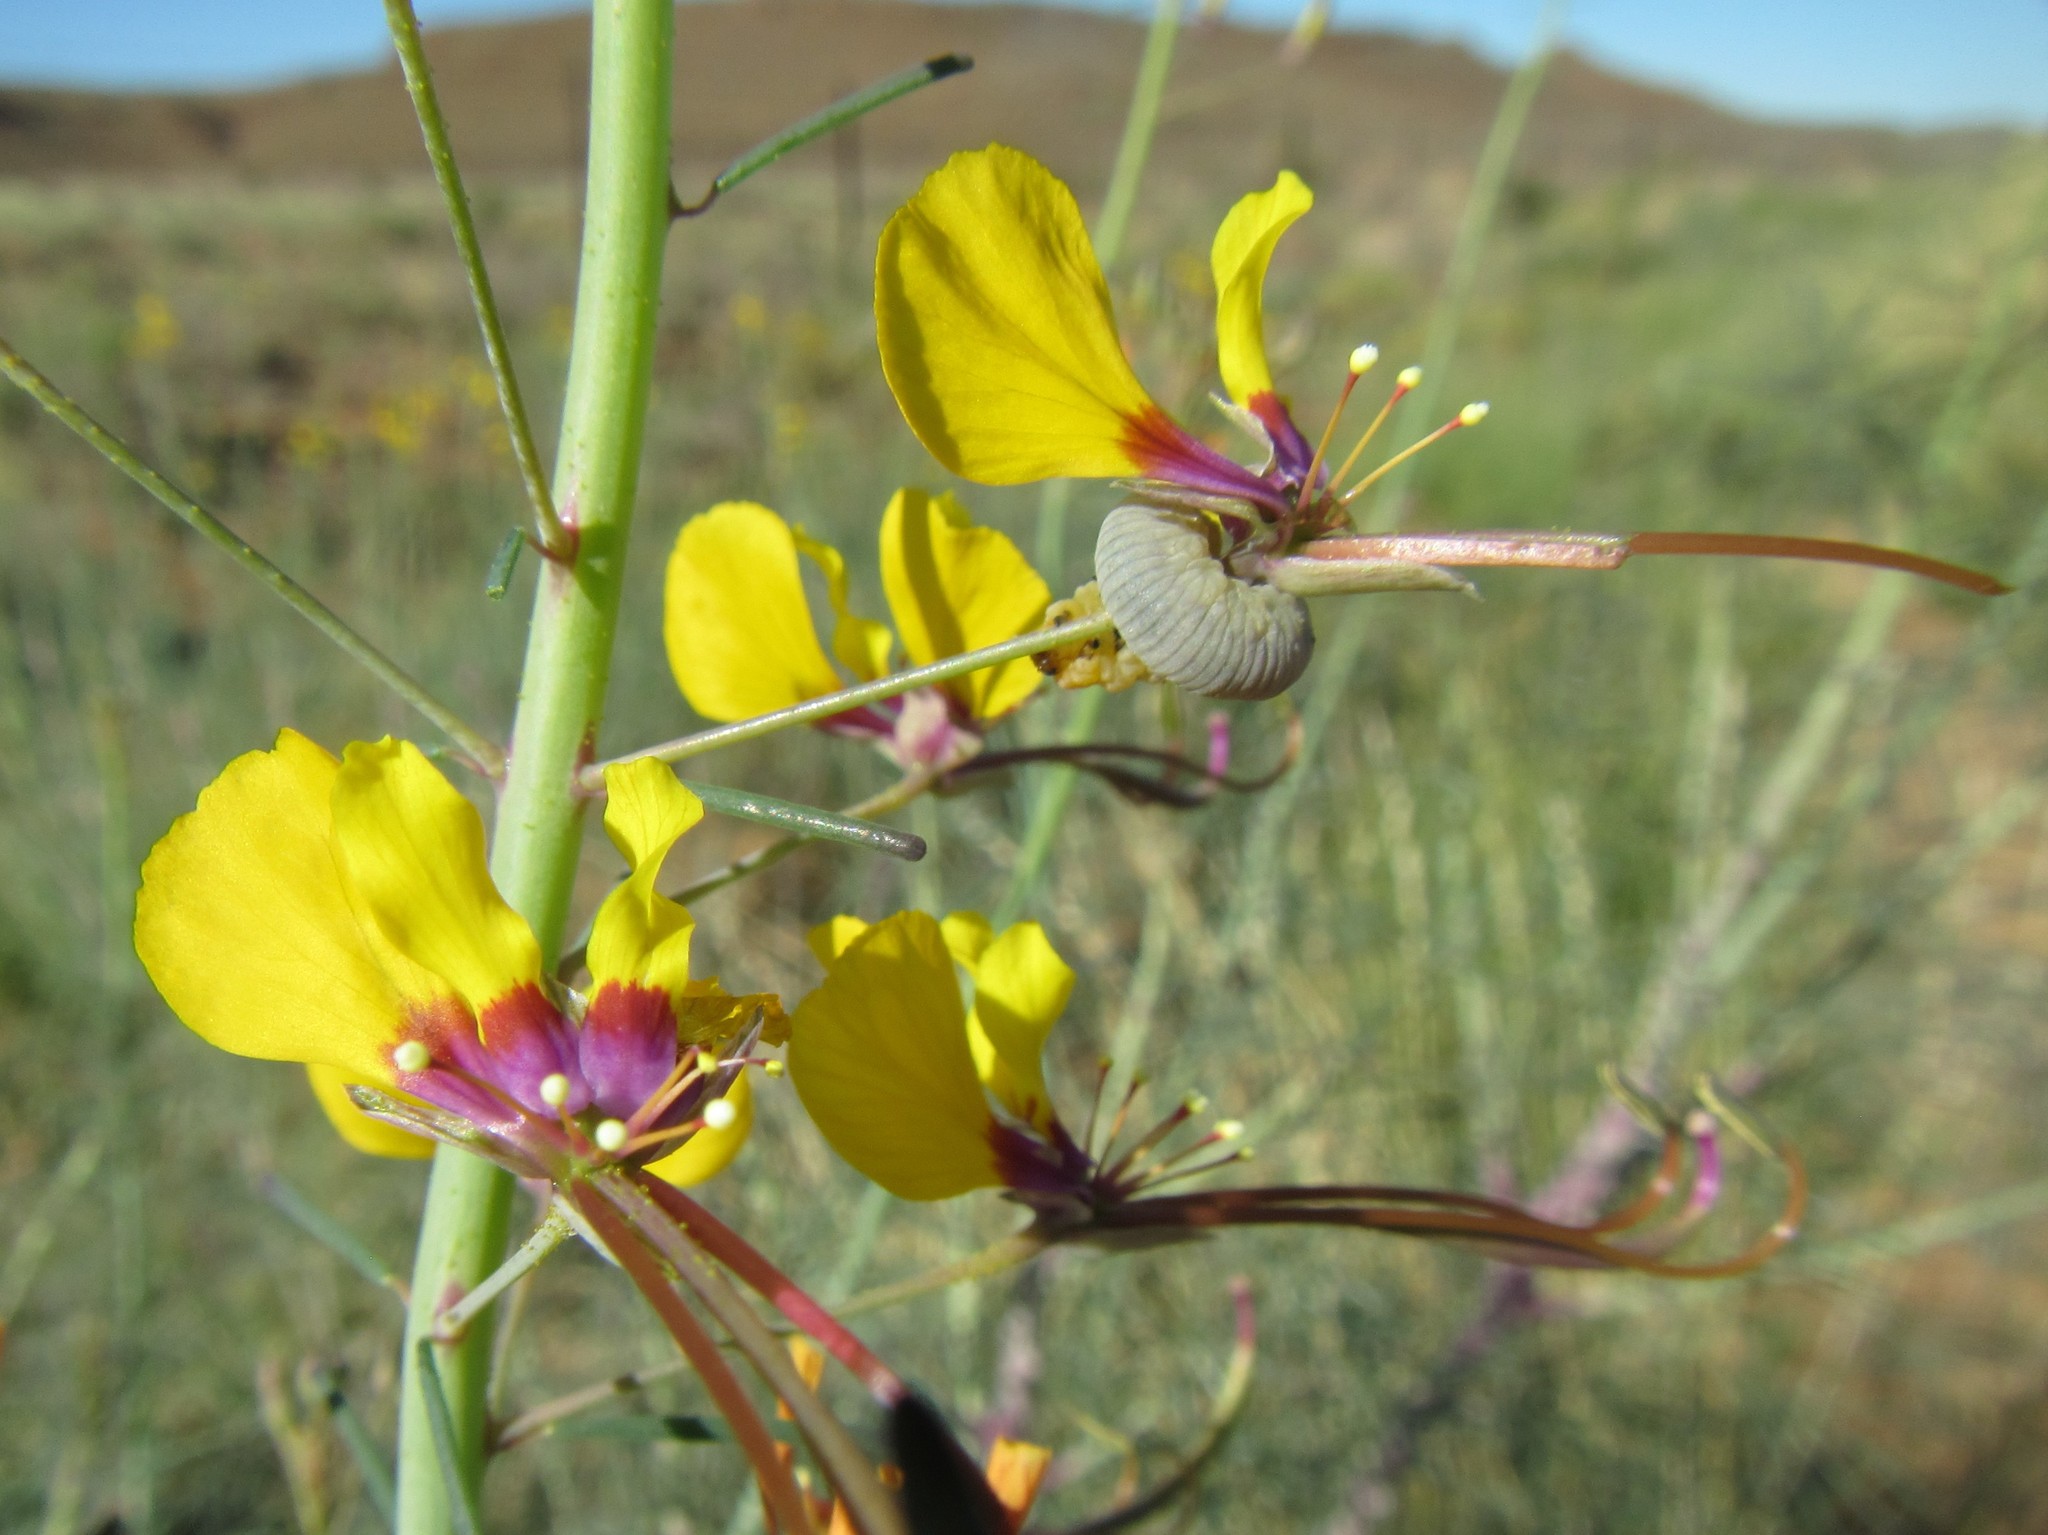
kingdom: Plantae
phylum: Tracheophyta
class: Magnoliopsida
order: Brassicales
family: Cleomaceae
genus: Coalisina
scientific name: Coalisina
